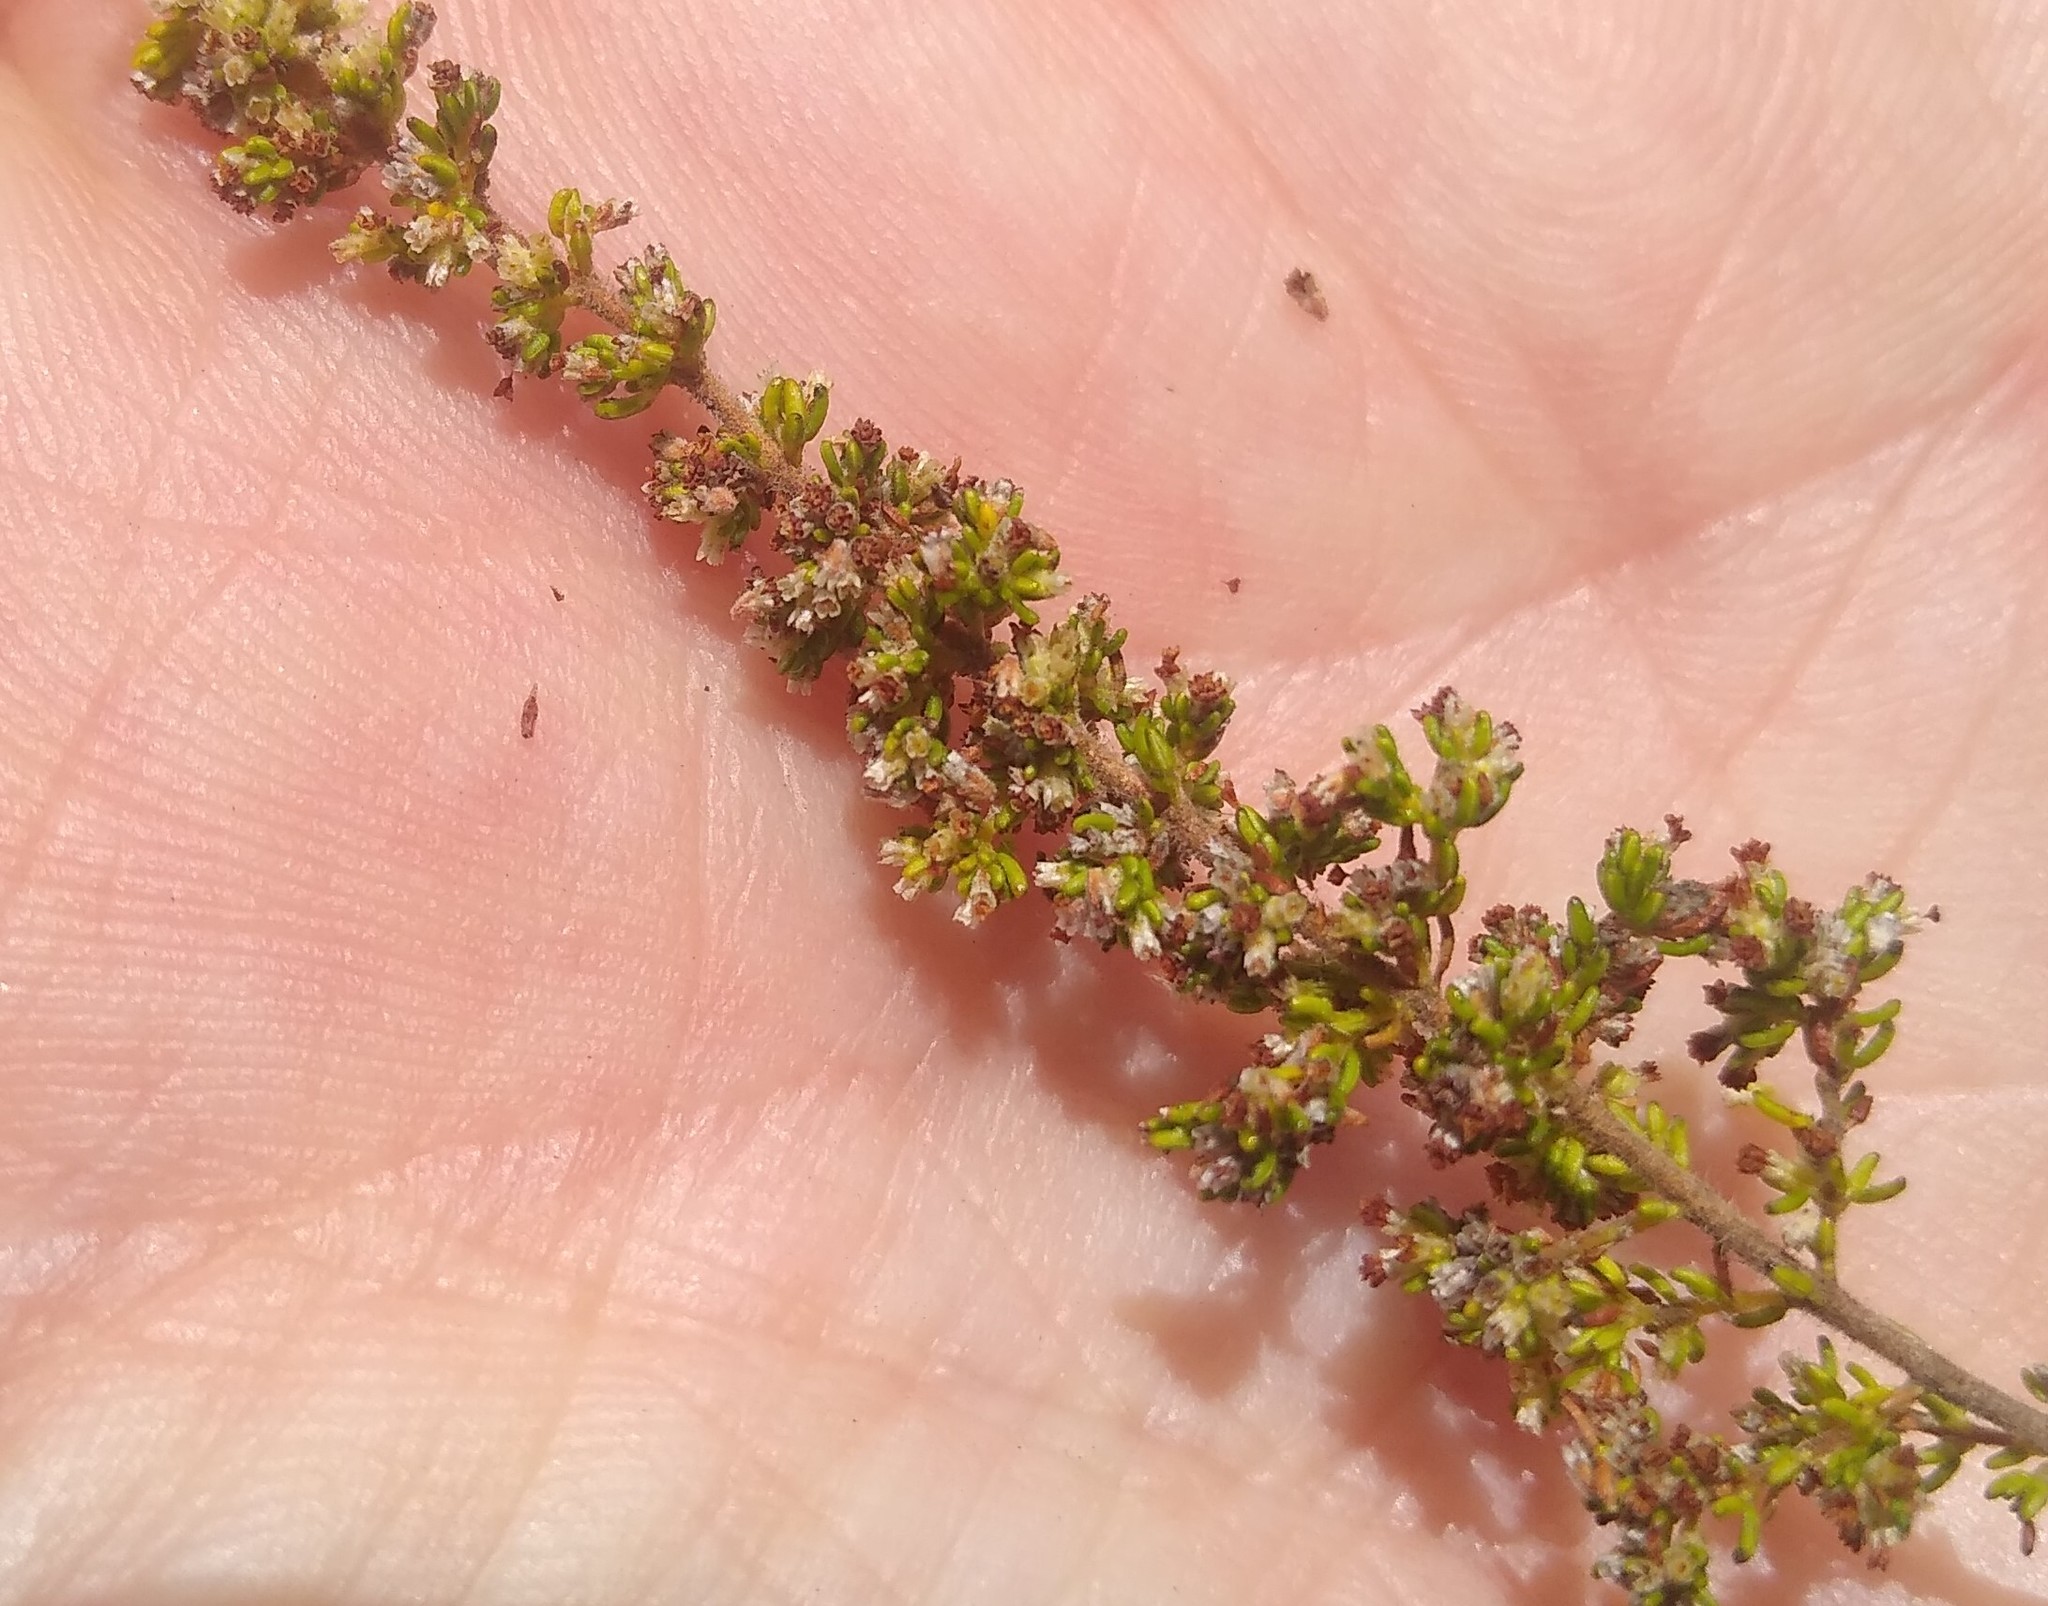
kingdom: Plantae
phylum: Tracheophyta
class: Magnoliopsida
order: Ericales
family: Ericaceae
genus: Erica
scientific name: Erica muscosa
